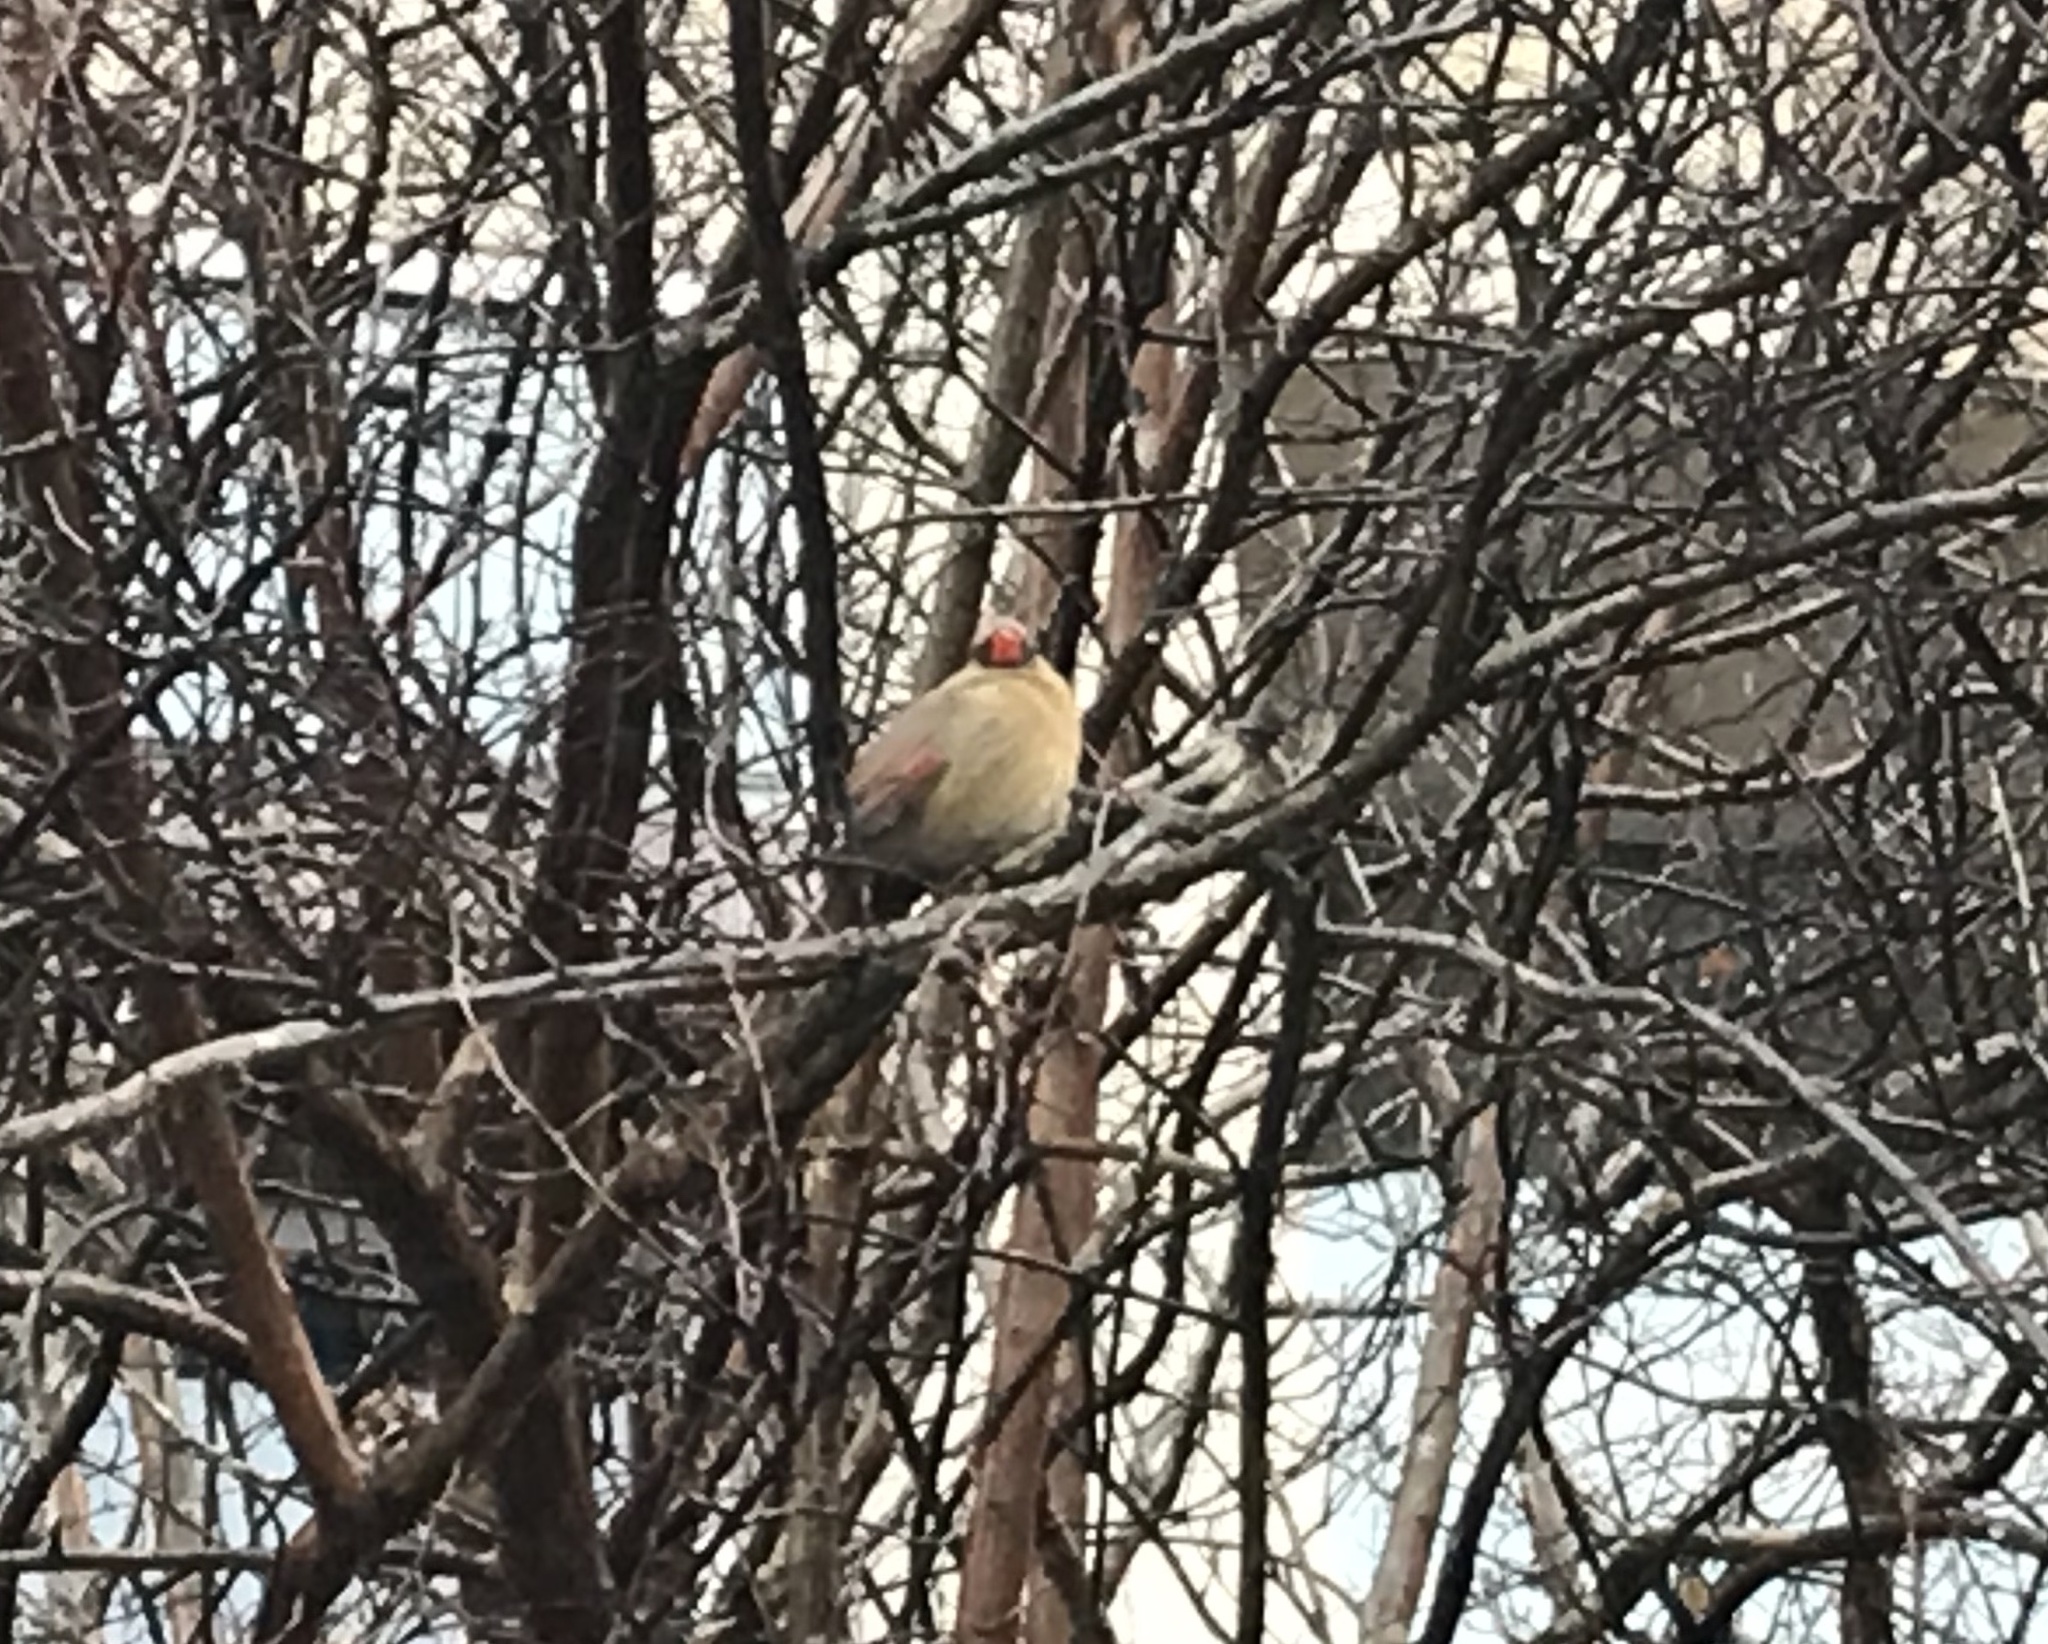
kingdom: Animalia
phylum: Chordata
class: Aves
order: Passeriformes
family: Cardinalidae
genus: Cardinalis
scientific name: Cardinalis cardinalis
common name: Northern cardinal
